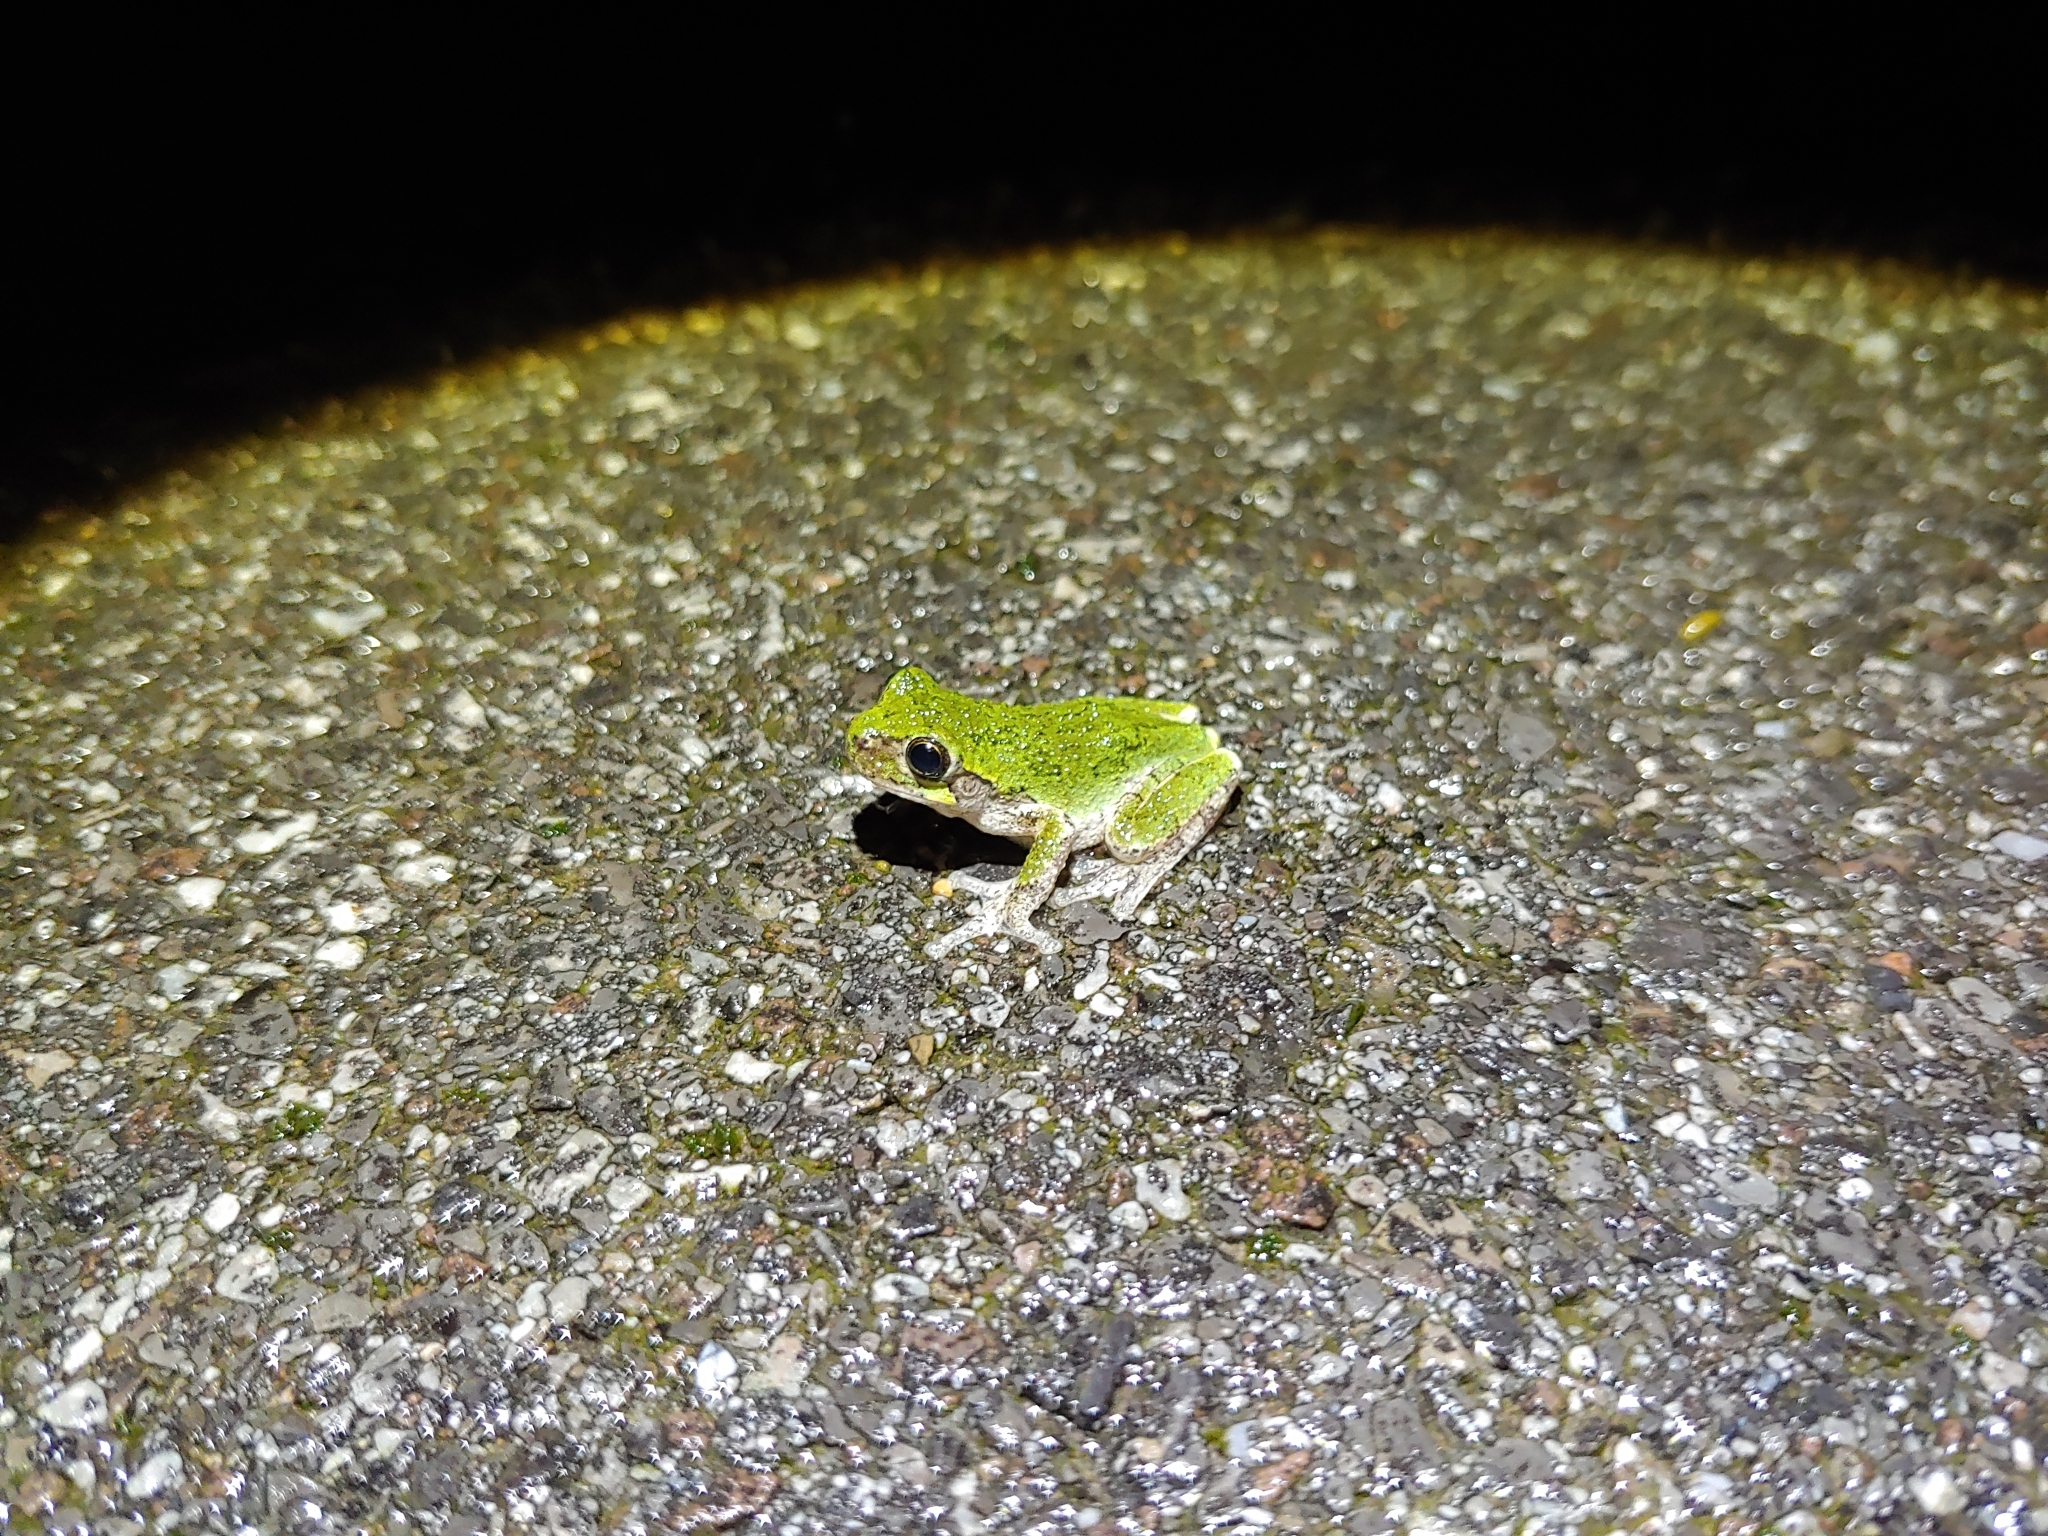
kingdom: Animalia
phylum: Chordata
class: Amphibia
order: Anura
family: Hylidae
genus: Dryophytes
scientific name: Dryophytes versicolor
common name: Gray treefrog
